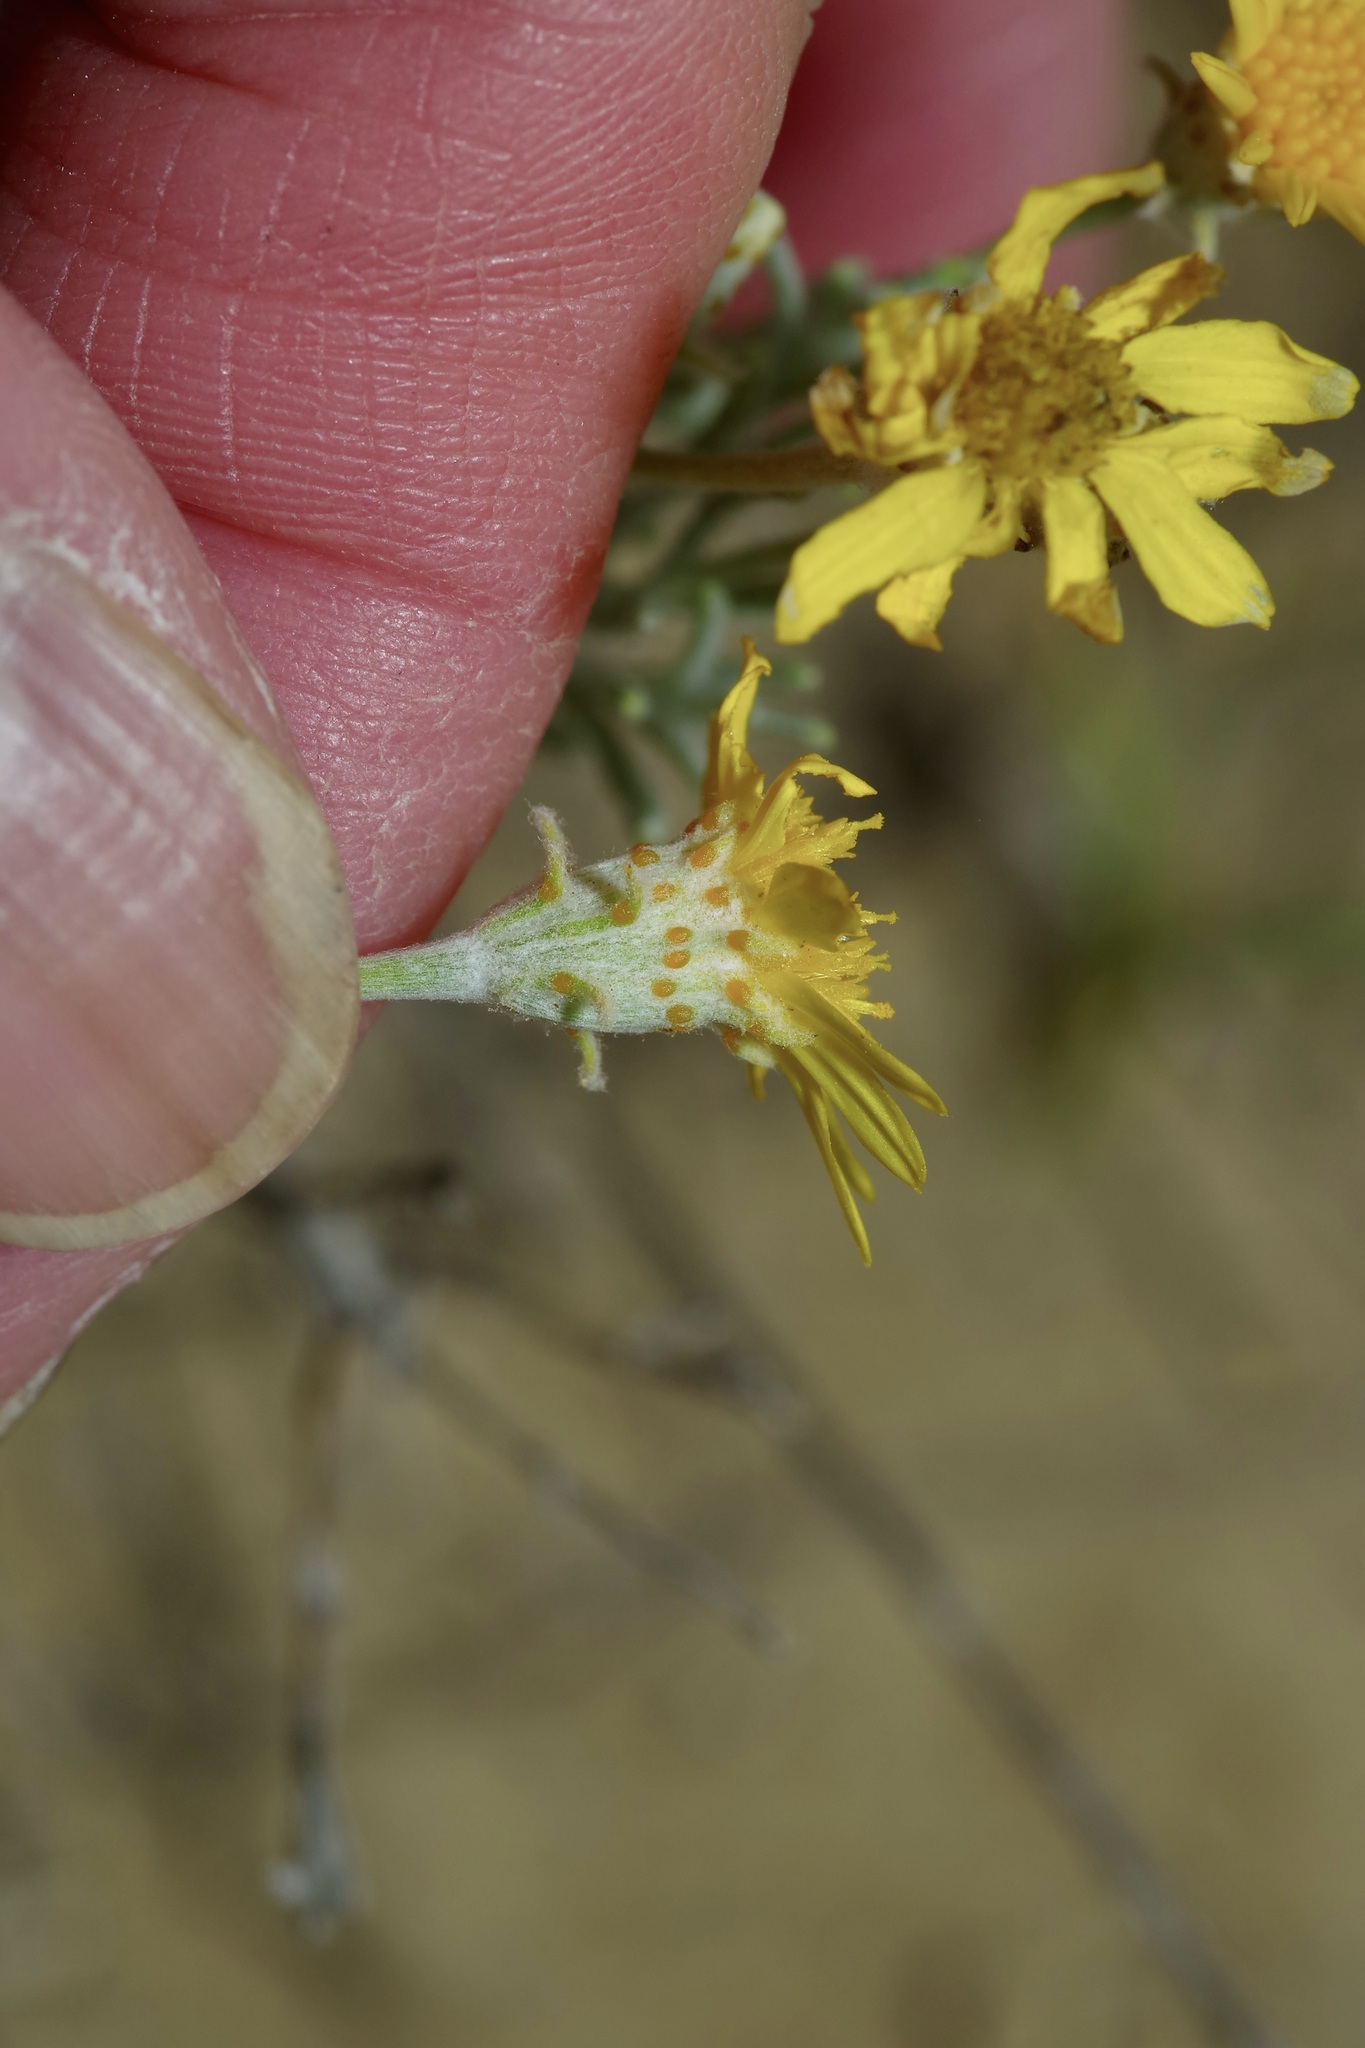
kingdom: Plantae
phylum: Tracheophyta
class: Magnoliopsida
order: Asterales
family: Asteraceae
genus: Thymophylla
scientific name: Thymophylla tephroleuca
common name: Ashy dogweed
